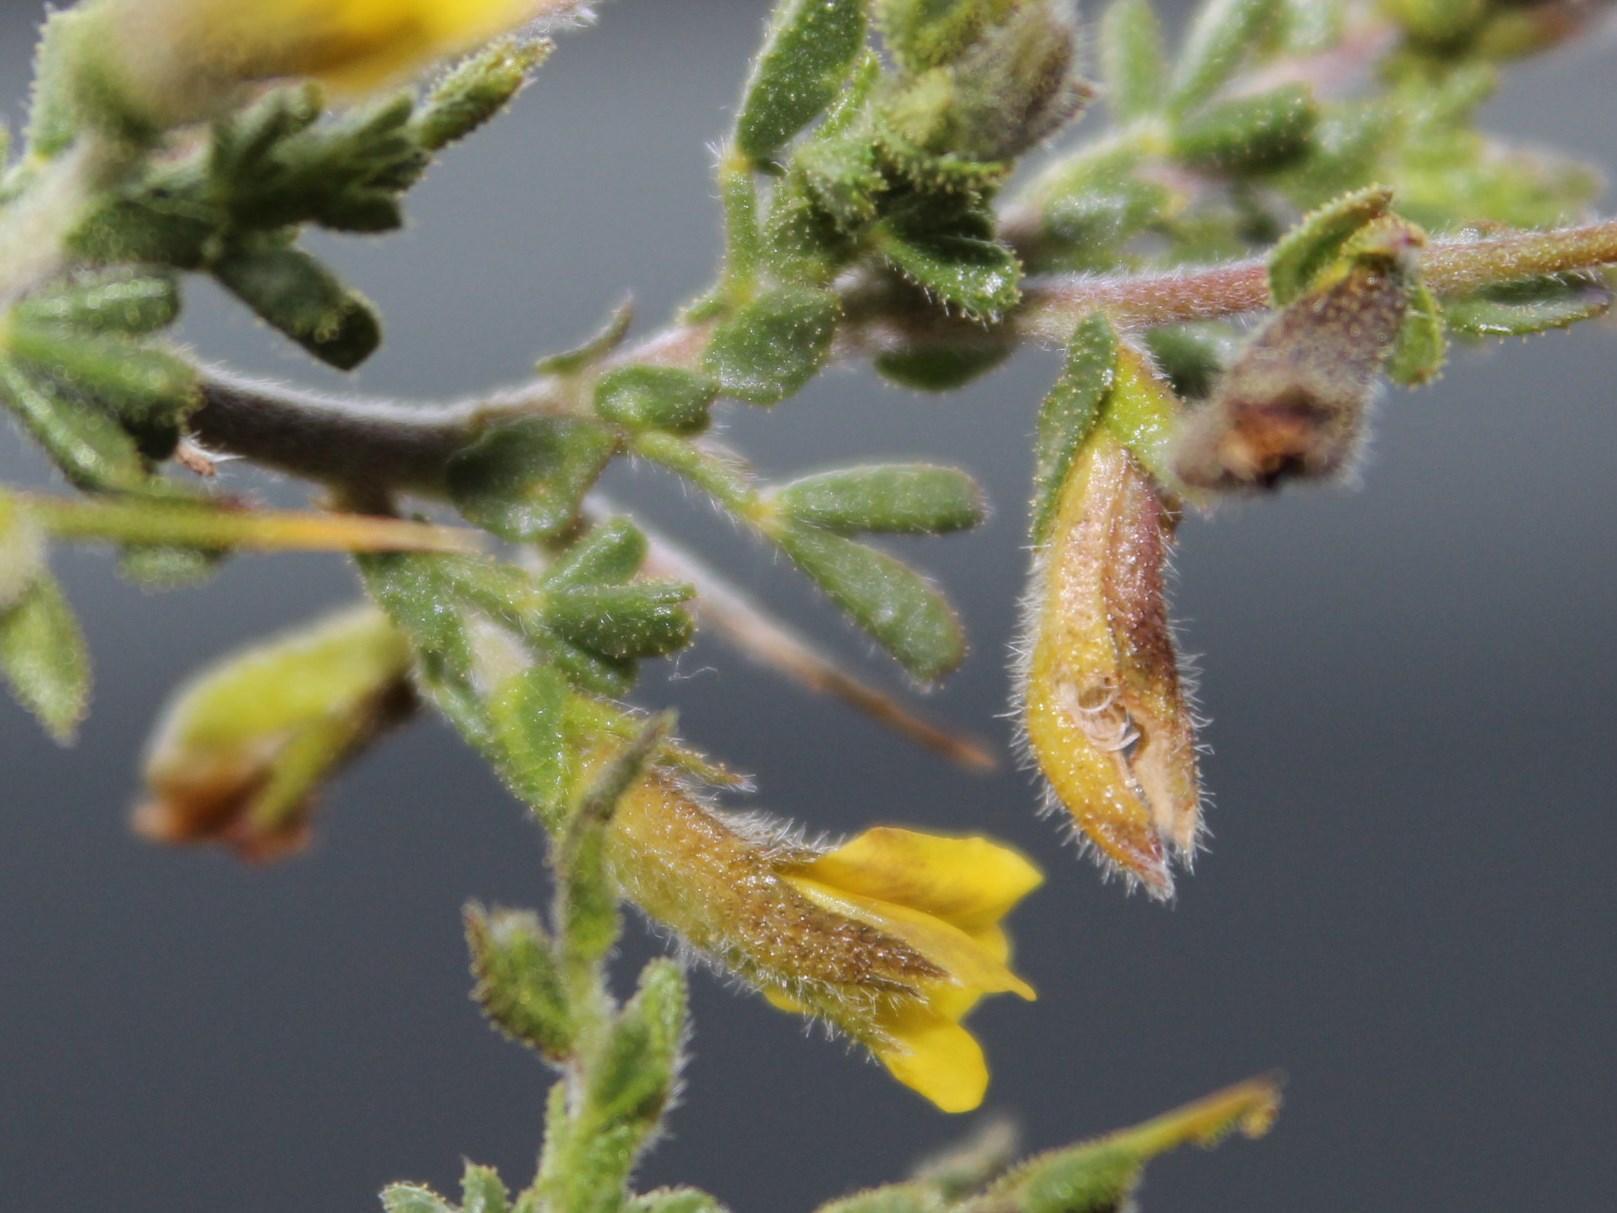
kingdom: Plantae
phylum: Tracheophyta
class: Magnoliopsida
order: Fabales
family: Fabaceae
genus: Melolobium
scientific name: Melolobium candicans
